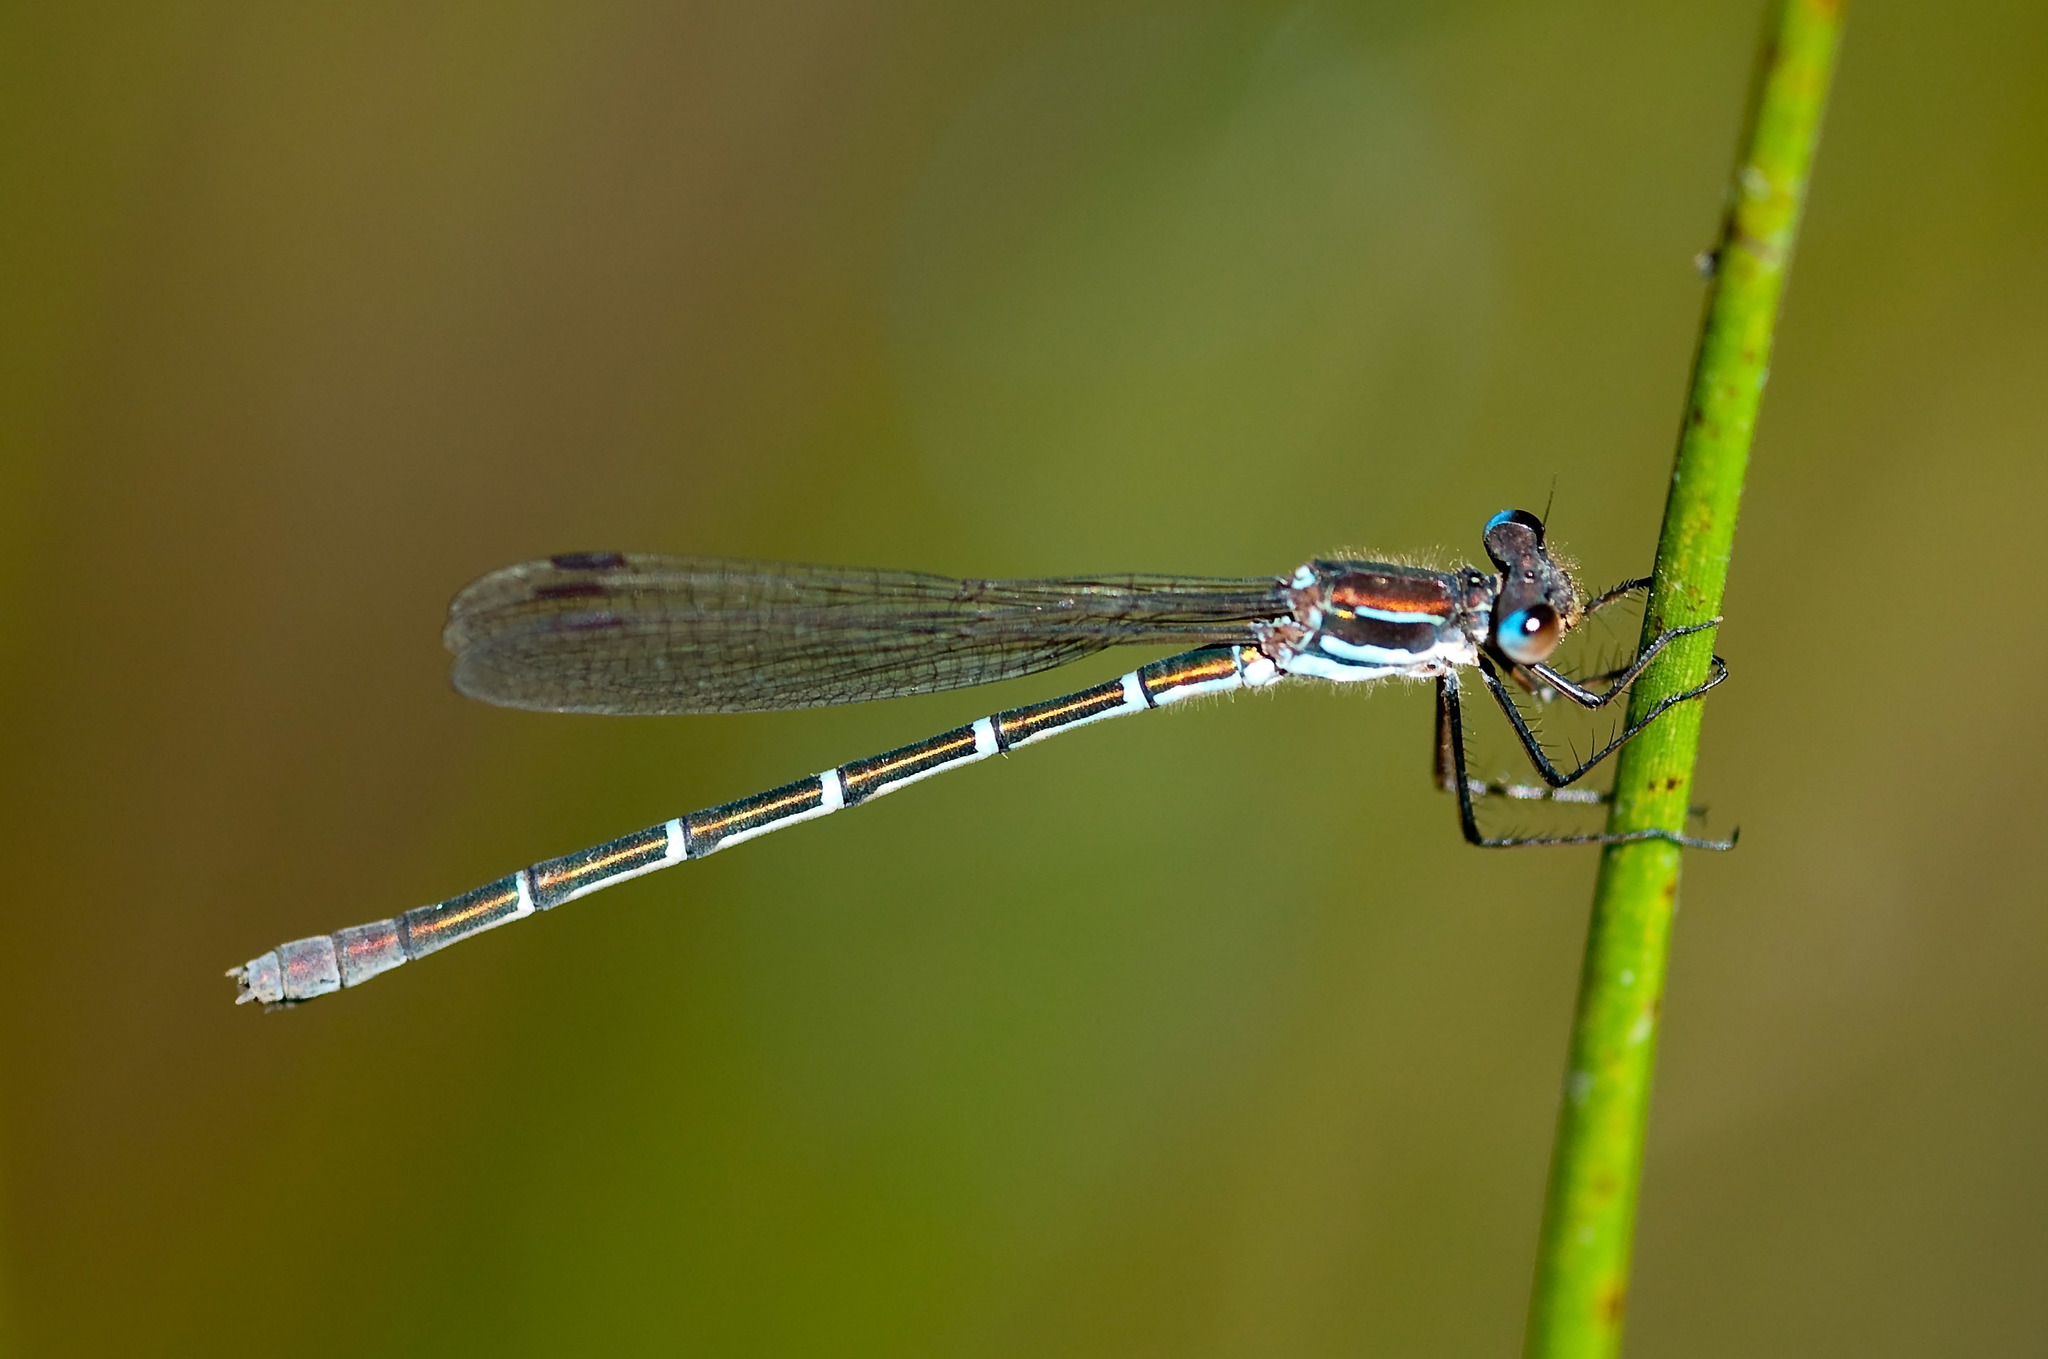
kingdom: Animalia
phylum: Arthropoda
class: Insecta
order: Odonata
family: Lestidae
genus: Austrolestes
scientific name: Austrolestes psyche
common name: Cup ringtail
